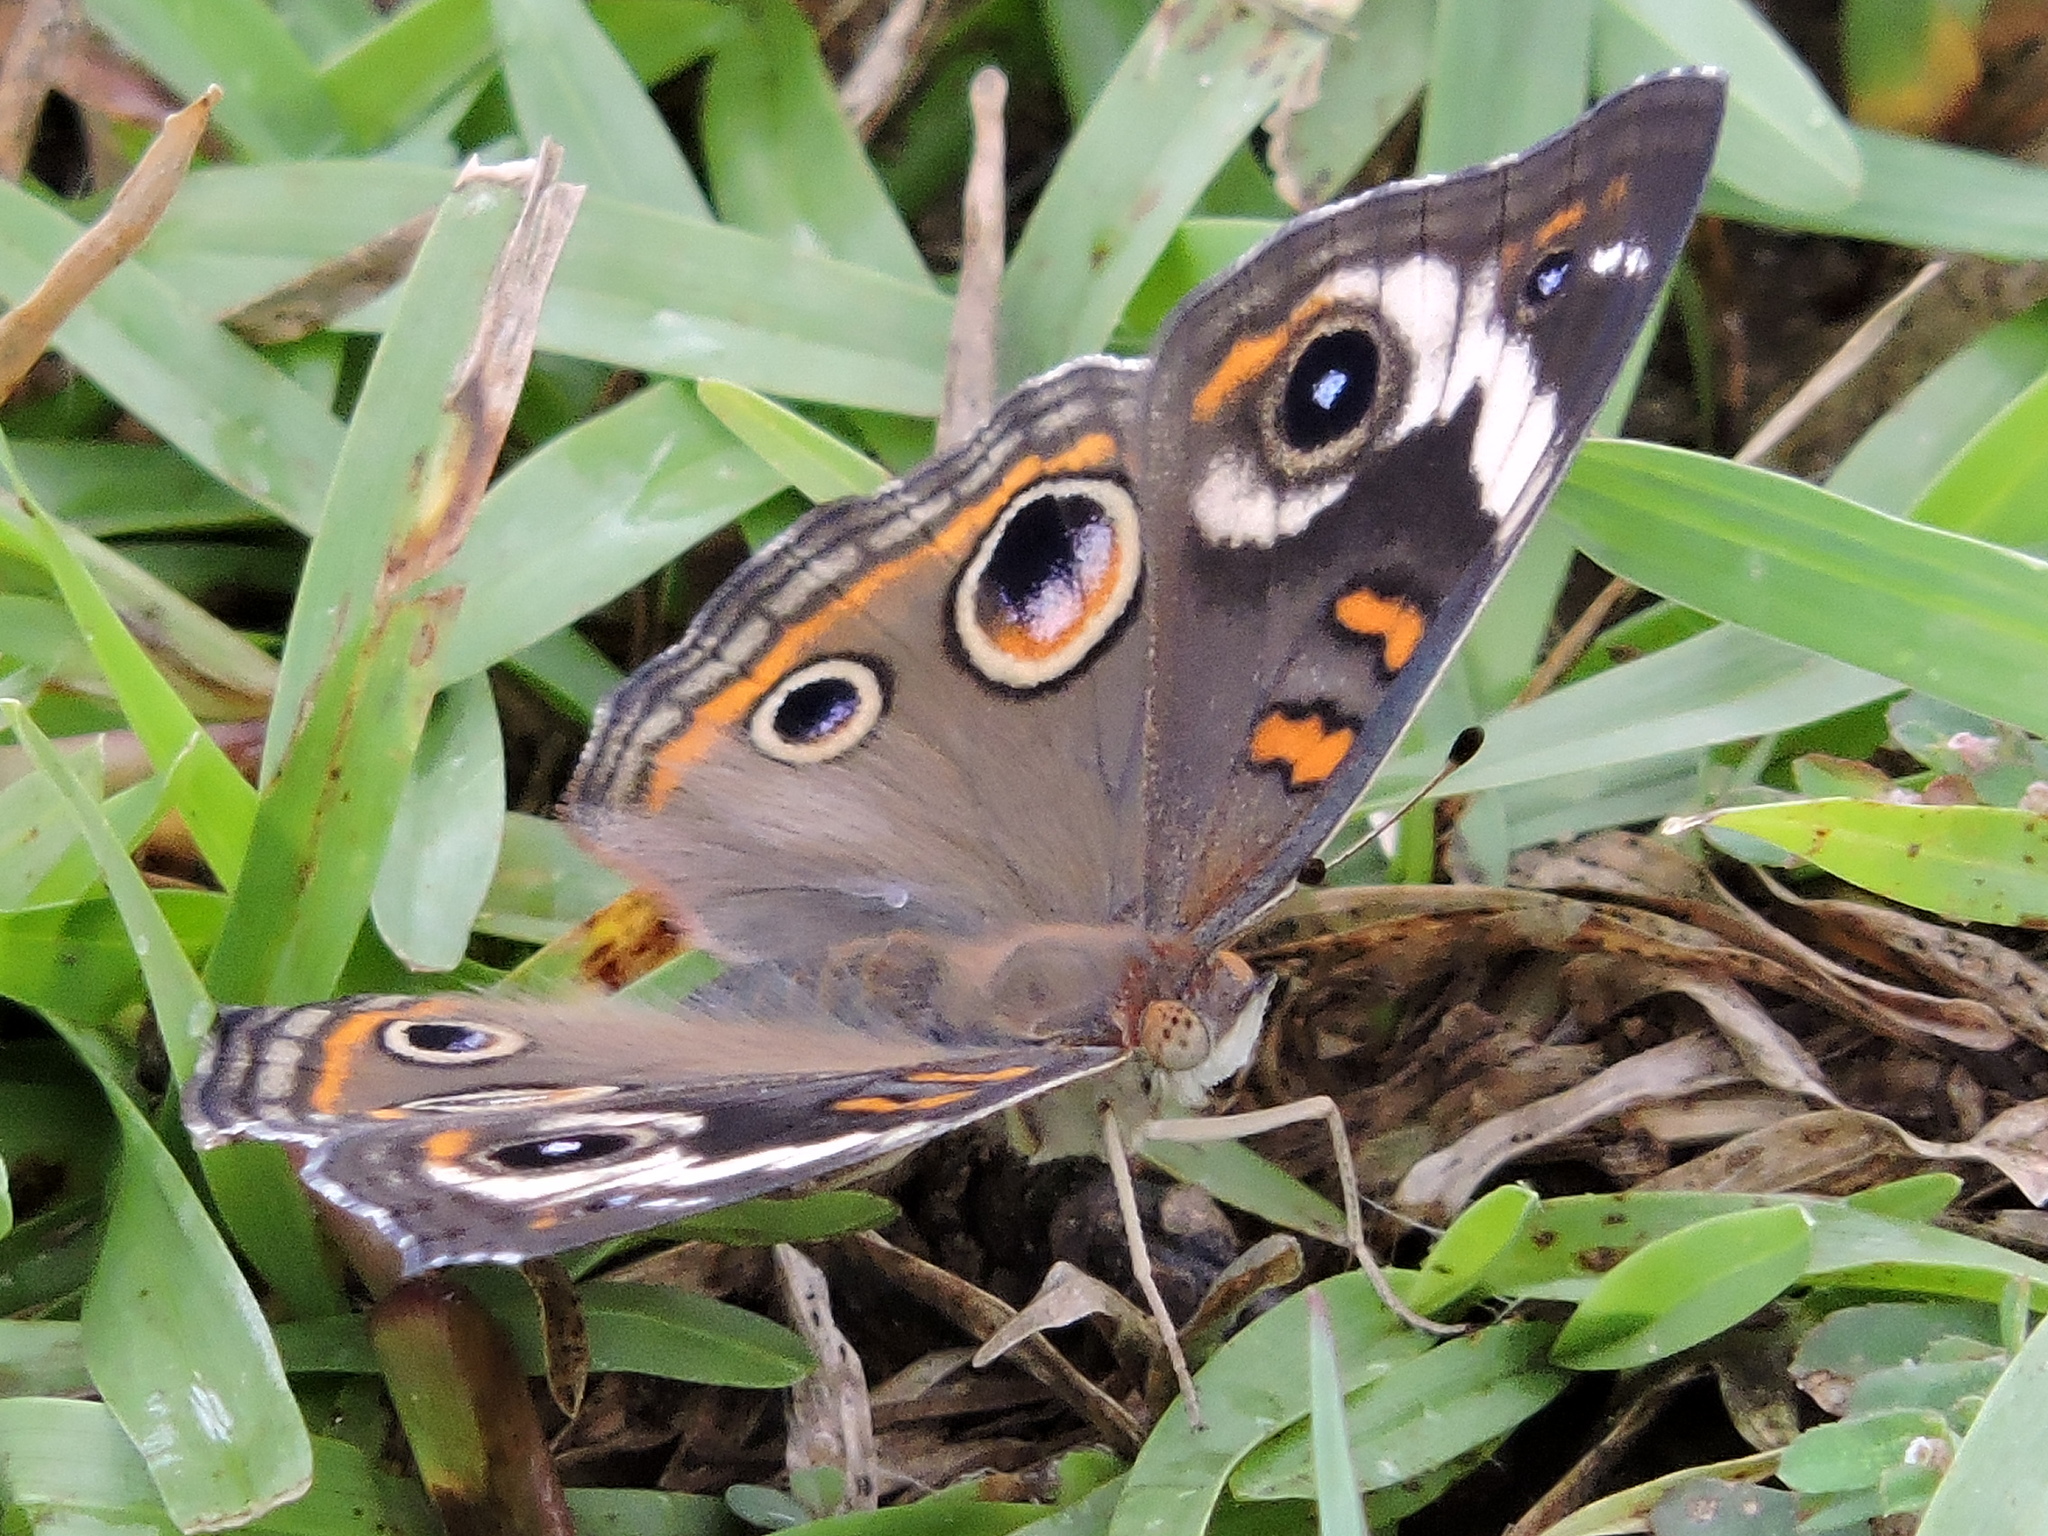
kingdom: Animalia
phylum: Arthropoda
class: Insecta
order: Lepidoptera
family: Nymphalidae
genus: Junonia
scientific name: Junonia coenia
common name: Common buckeye
